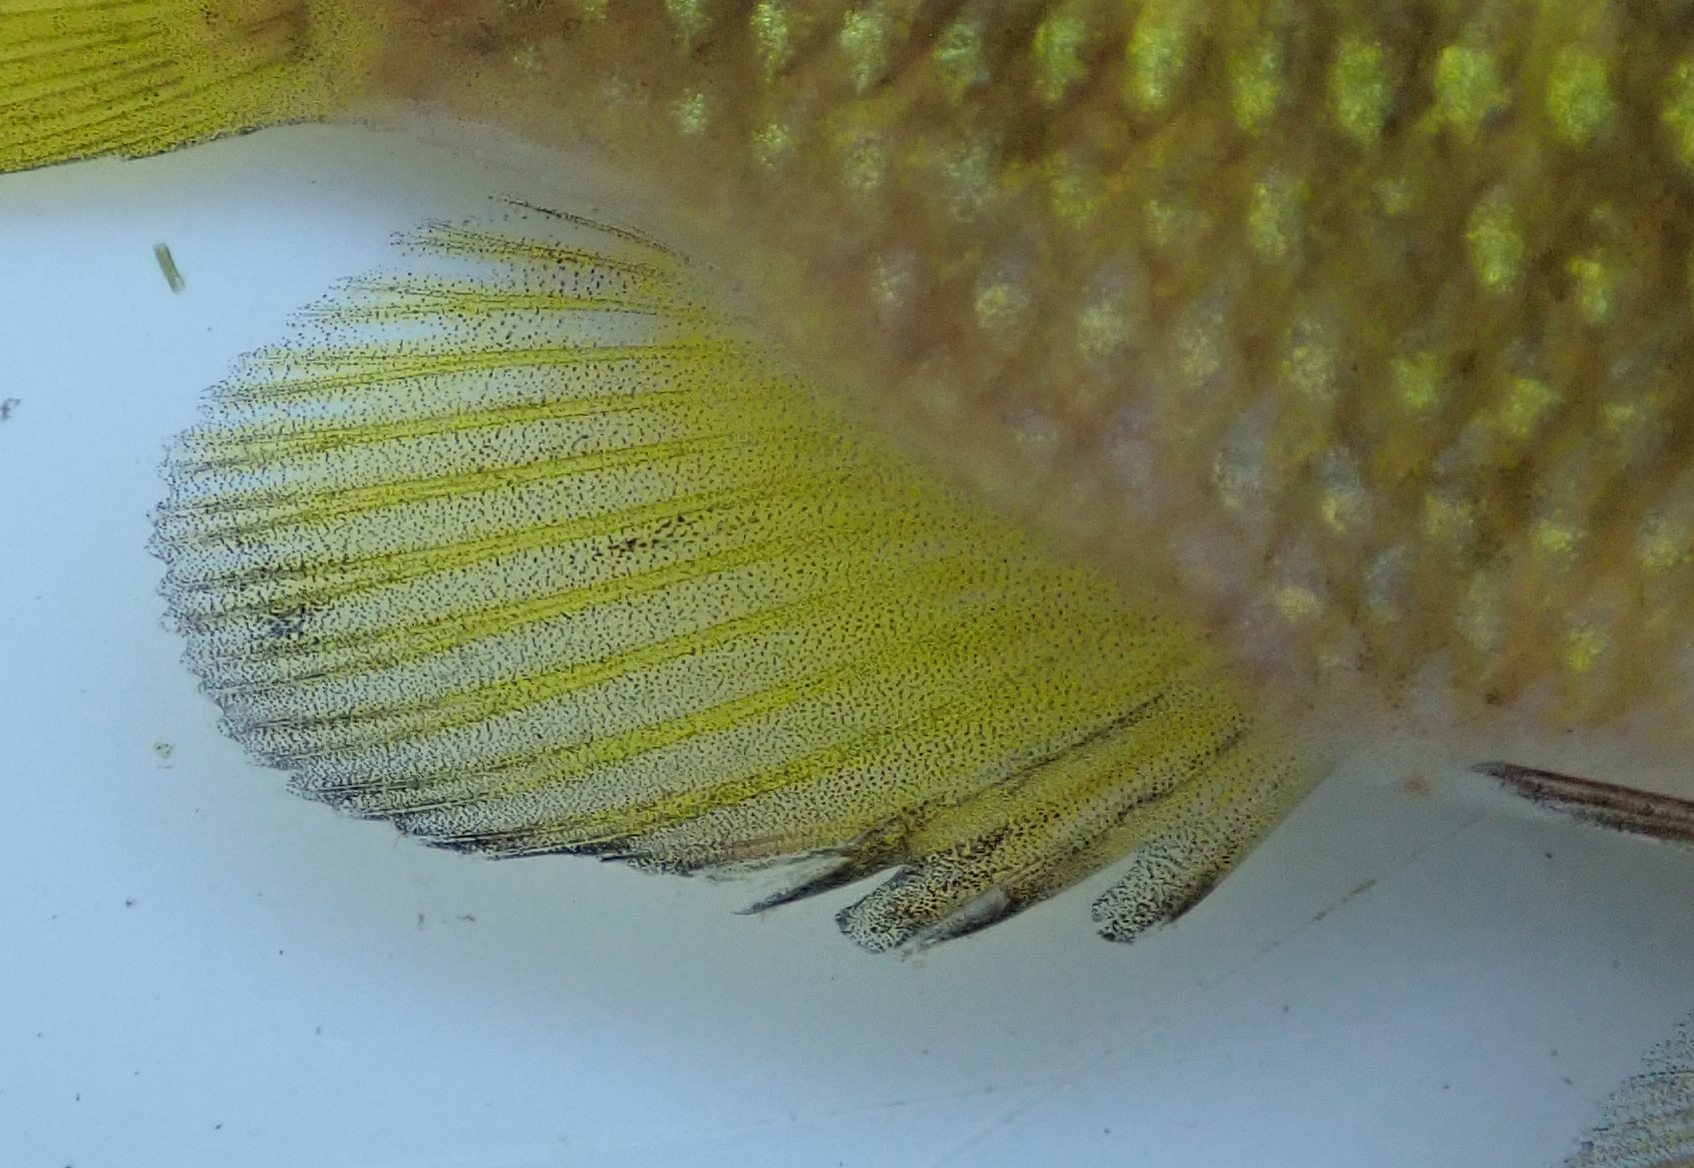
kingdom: Animalia
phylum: Chordata
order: Perciformes
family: Cichlidae
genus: Tilapia
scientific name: Tilapia sparrmanii
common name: Banded tilapia
